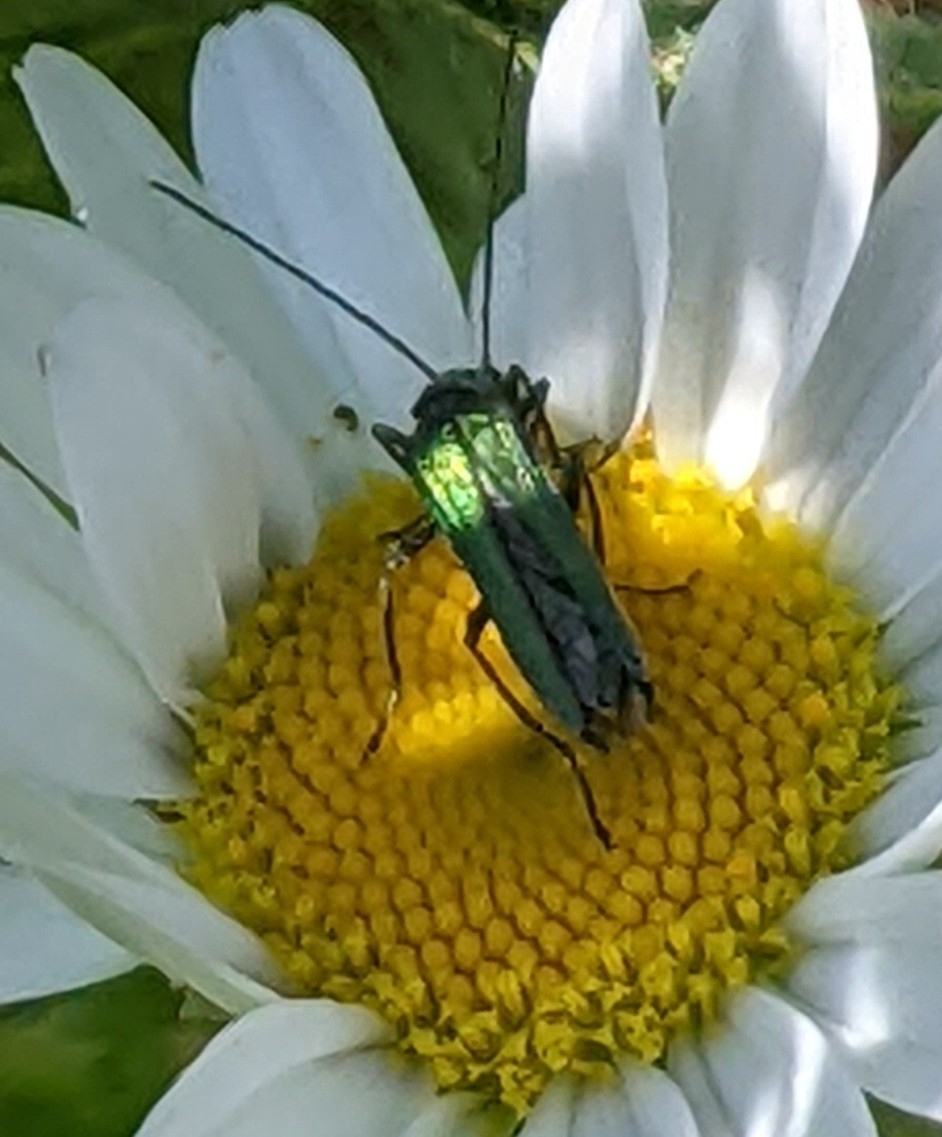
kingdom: Animalia
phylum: Arthropoda
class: Insecta
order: Coleoptera
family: Oedemeridae
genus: Oedemera
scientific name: Oedemera nobilis
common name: Swollen-thighed beetle
